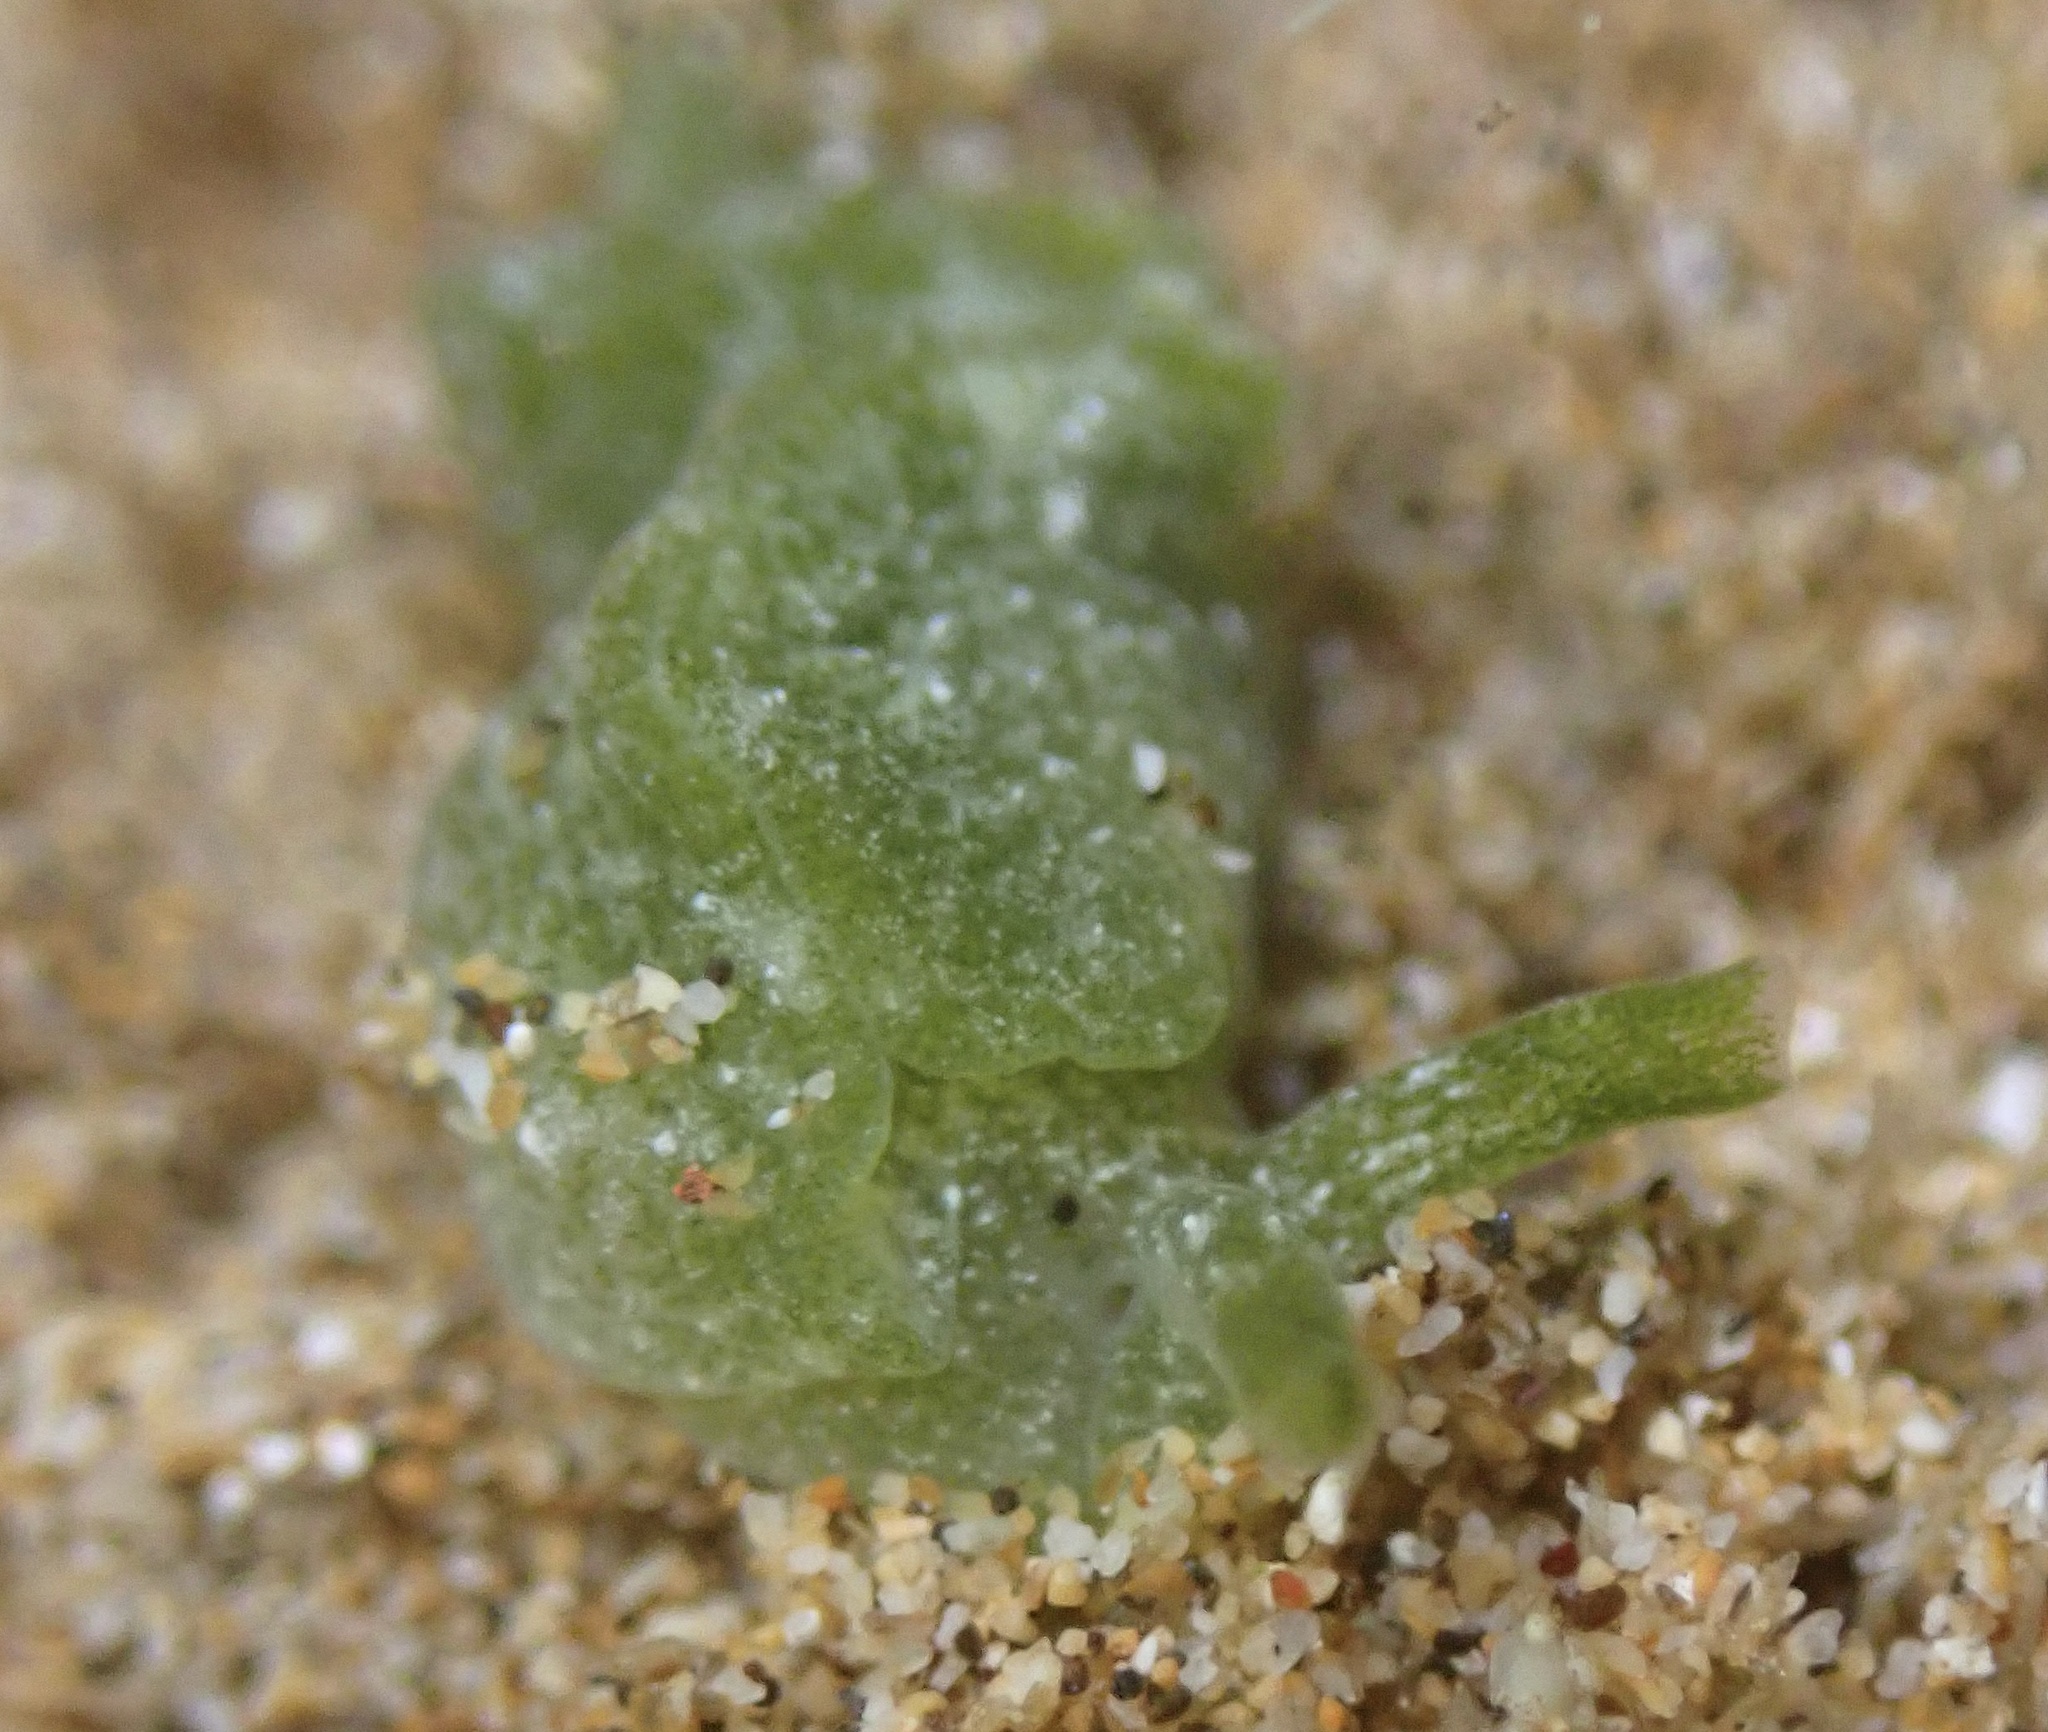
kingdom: Animalia
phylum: Mollusca
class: Gastropoda
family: Plakobranchidae
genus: Elysia
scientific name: Elysia nealae
